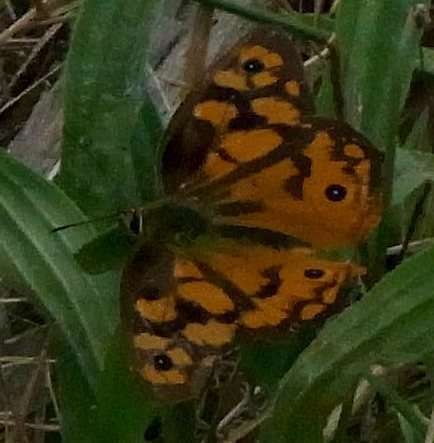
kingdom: Animalia
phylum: Arthropoda
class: Insecta
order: Lepidoptera
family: Nymphalidae
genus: Heteronympha
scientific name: Heteronympha penelope
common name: Shouldered brown
